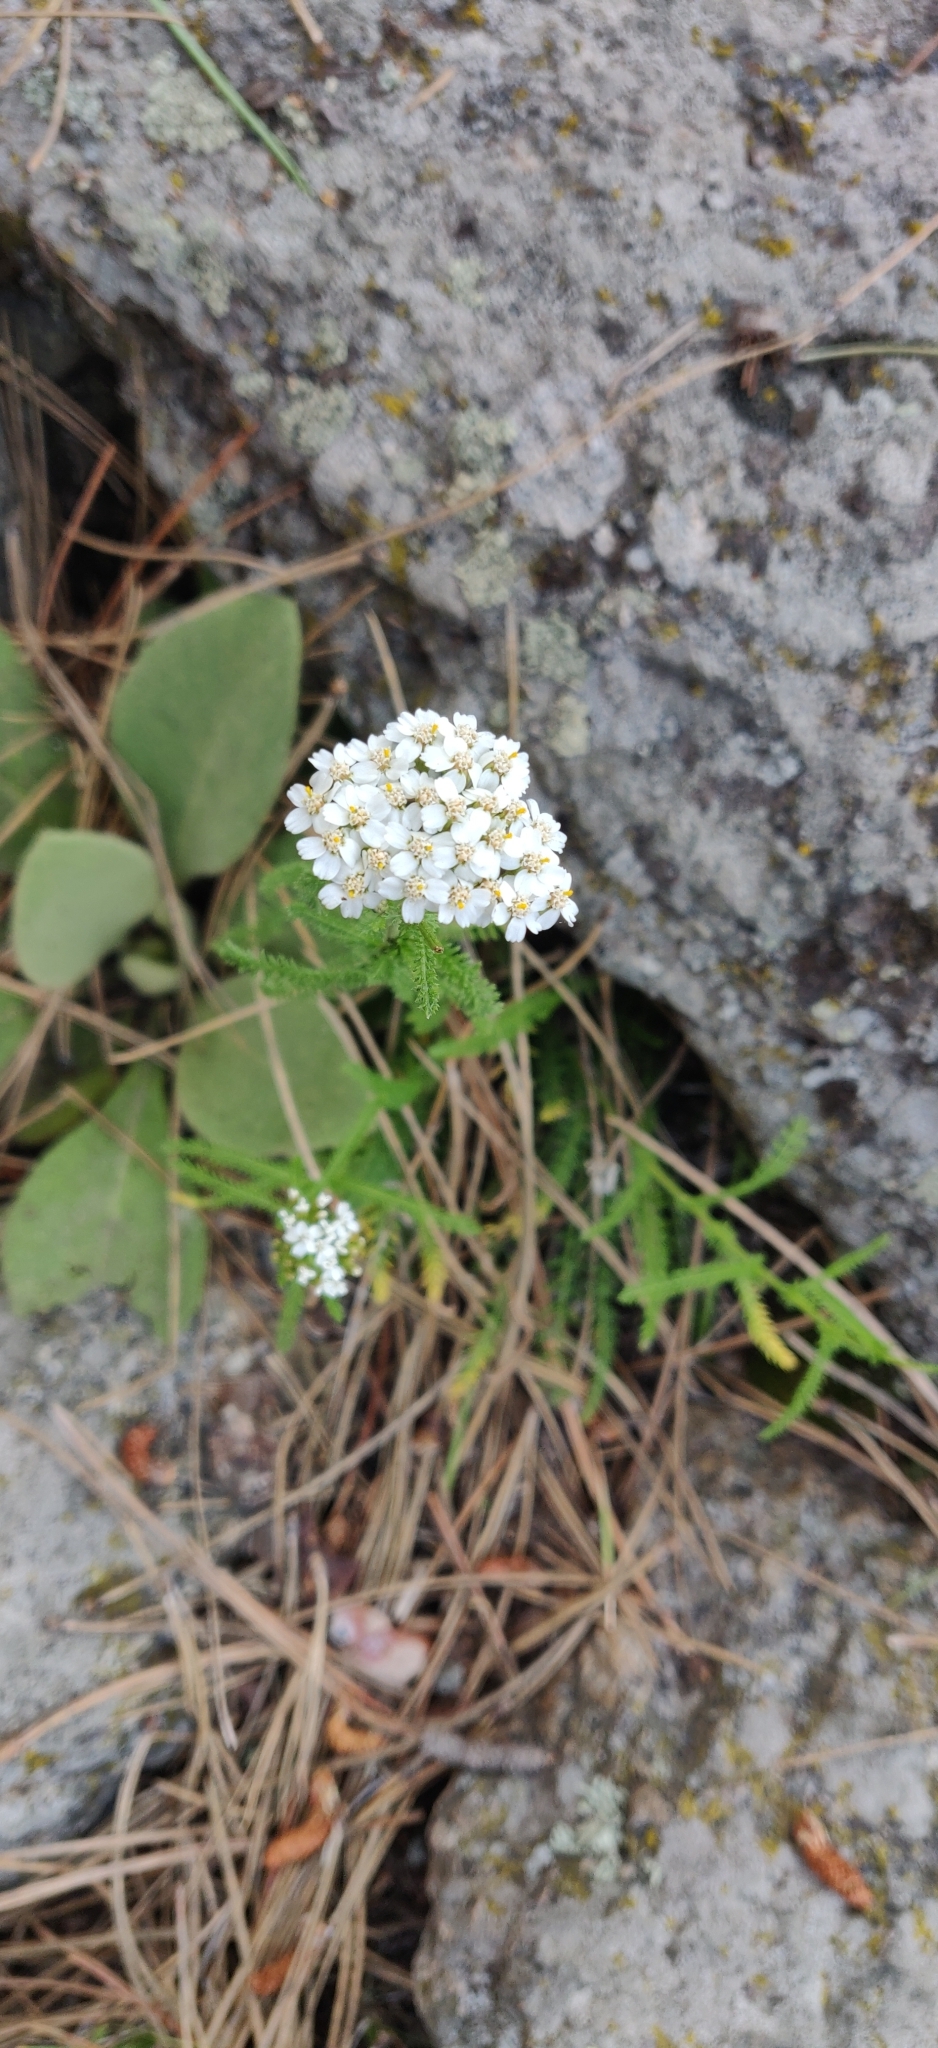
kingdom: Plantae
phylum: Tracheophyta
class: Magnoliopsida
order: Asterales
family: Asteraceae
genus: Achillea
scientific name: Achillea millefolium
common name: Yarrow
